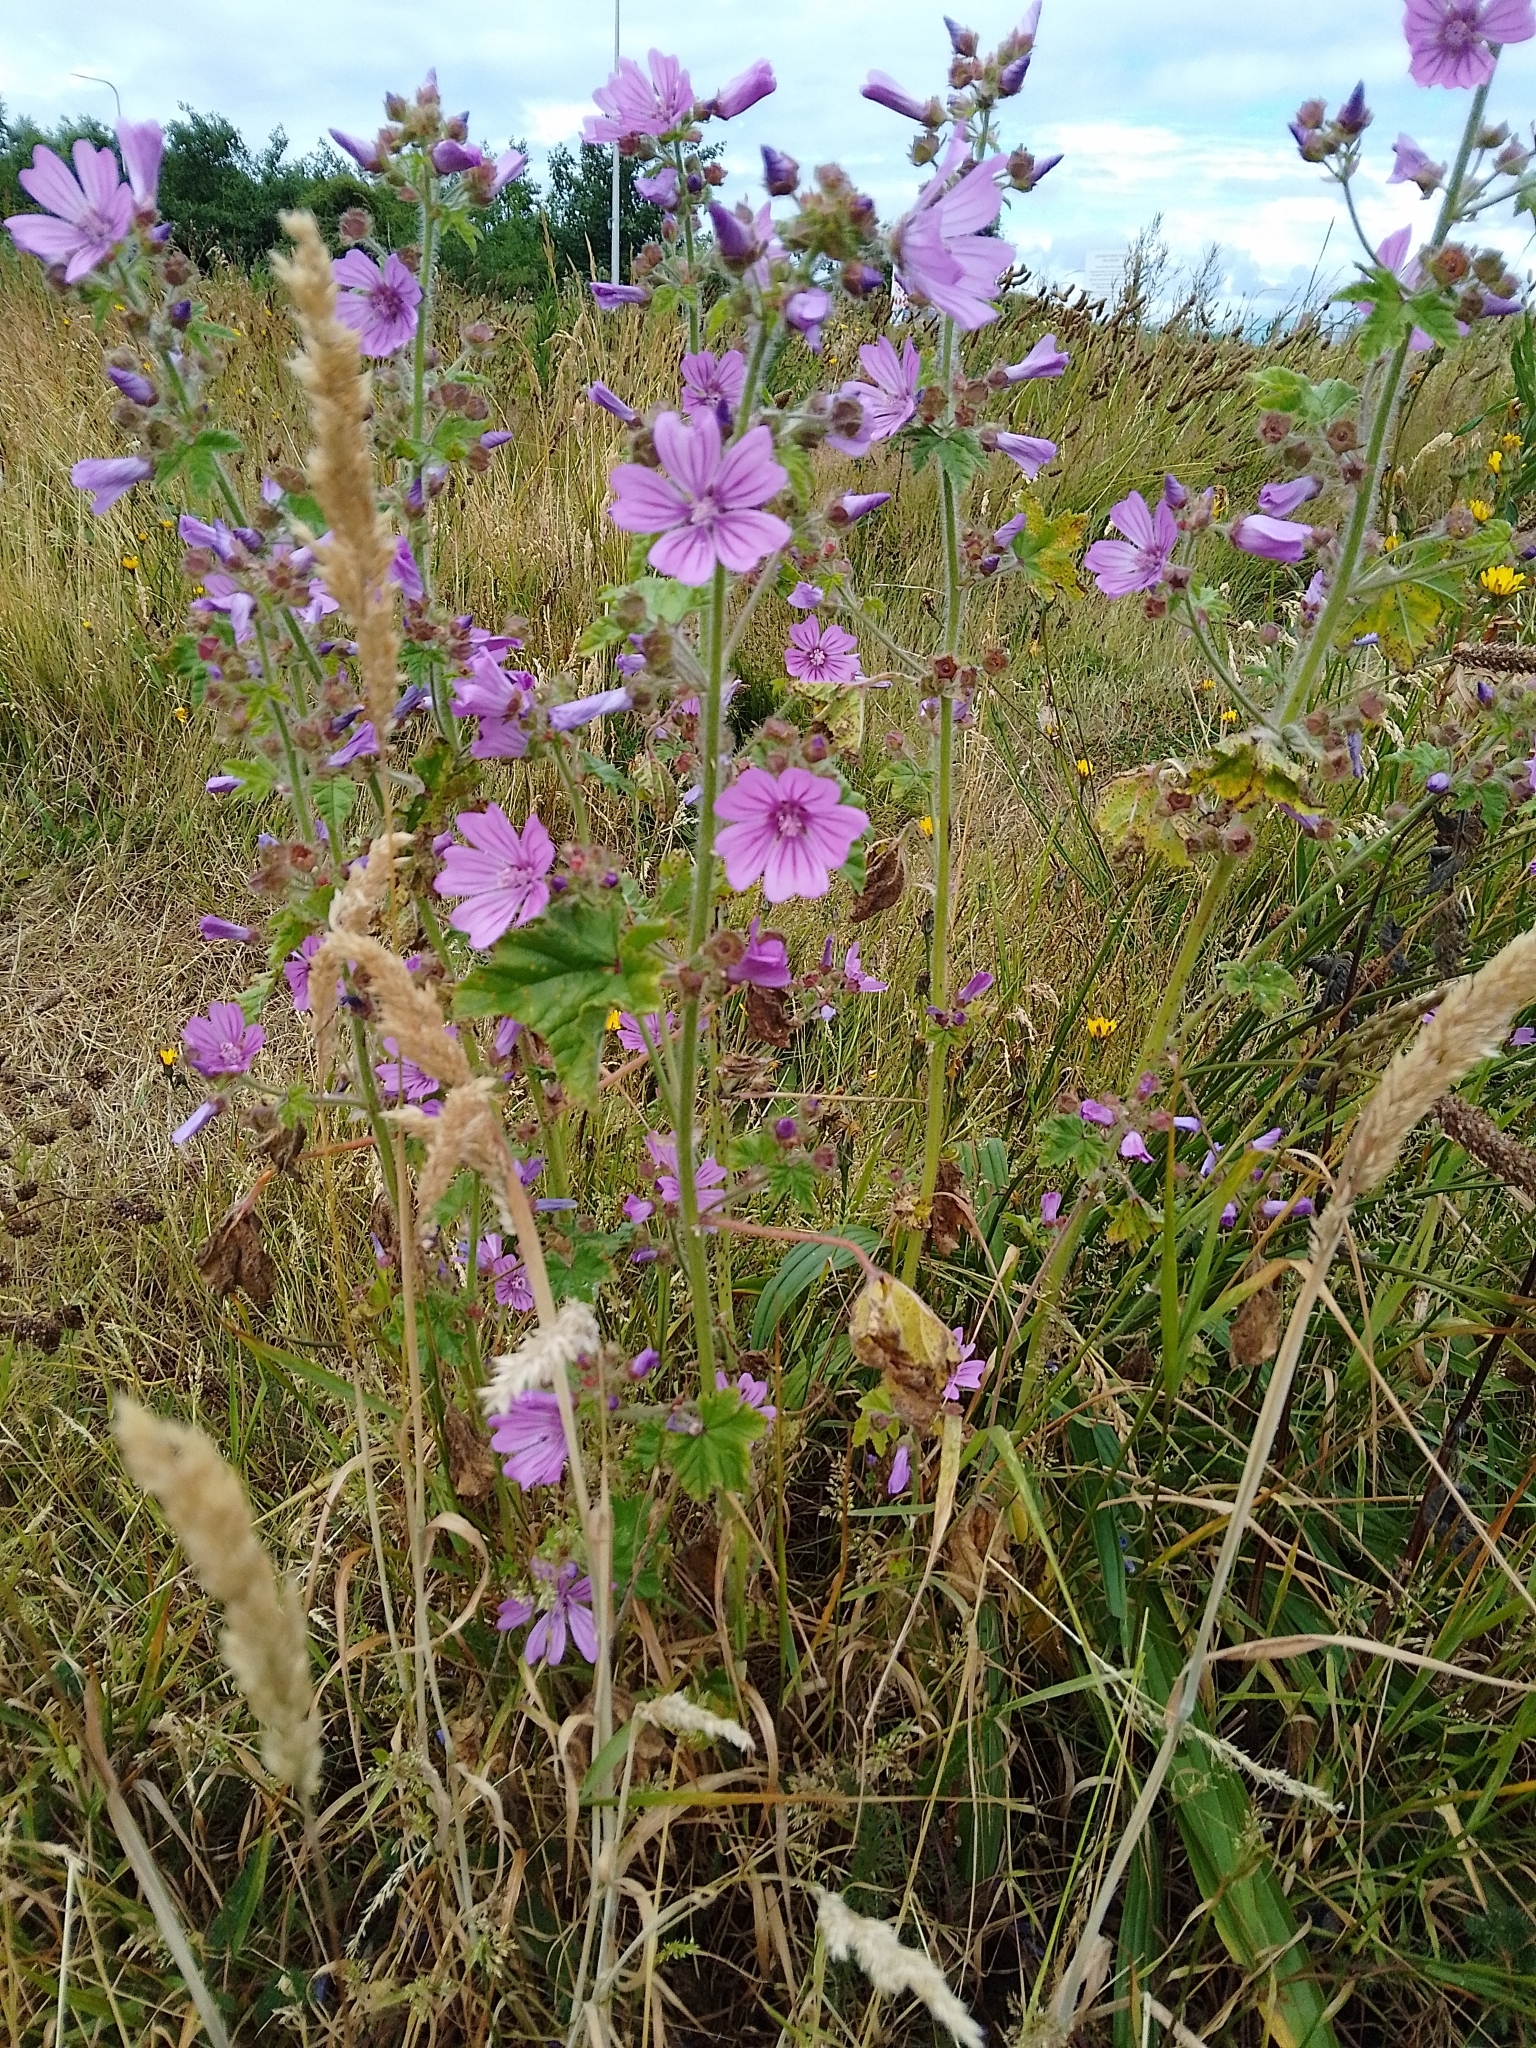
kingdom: Plantae
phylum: Tracheophyta
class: Magnoliopsida
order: Malvales
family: Malvaceae
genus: Malva
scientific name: Malva sylvestris
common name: Common mallow
